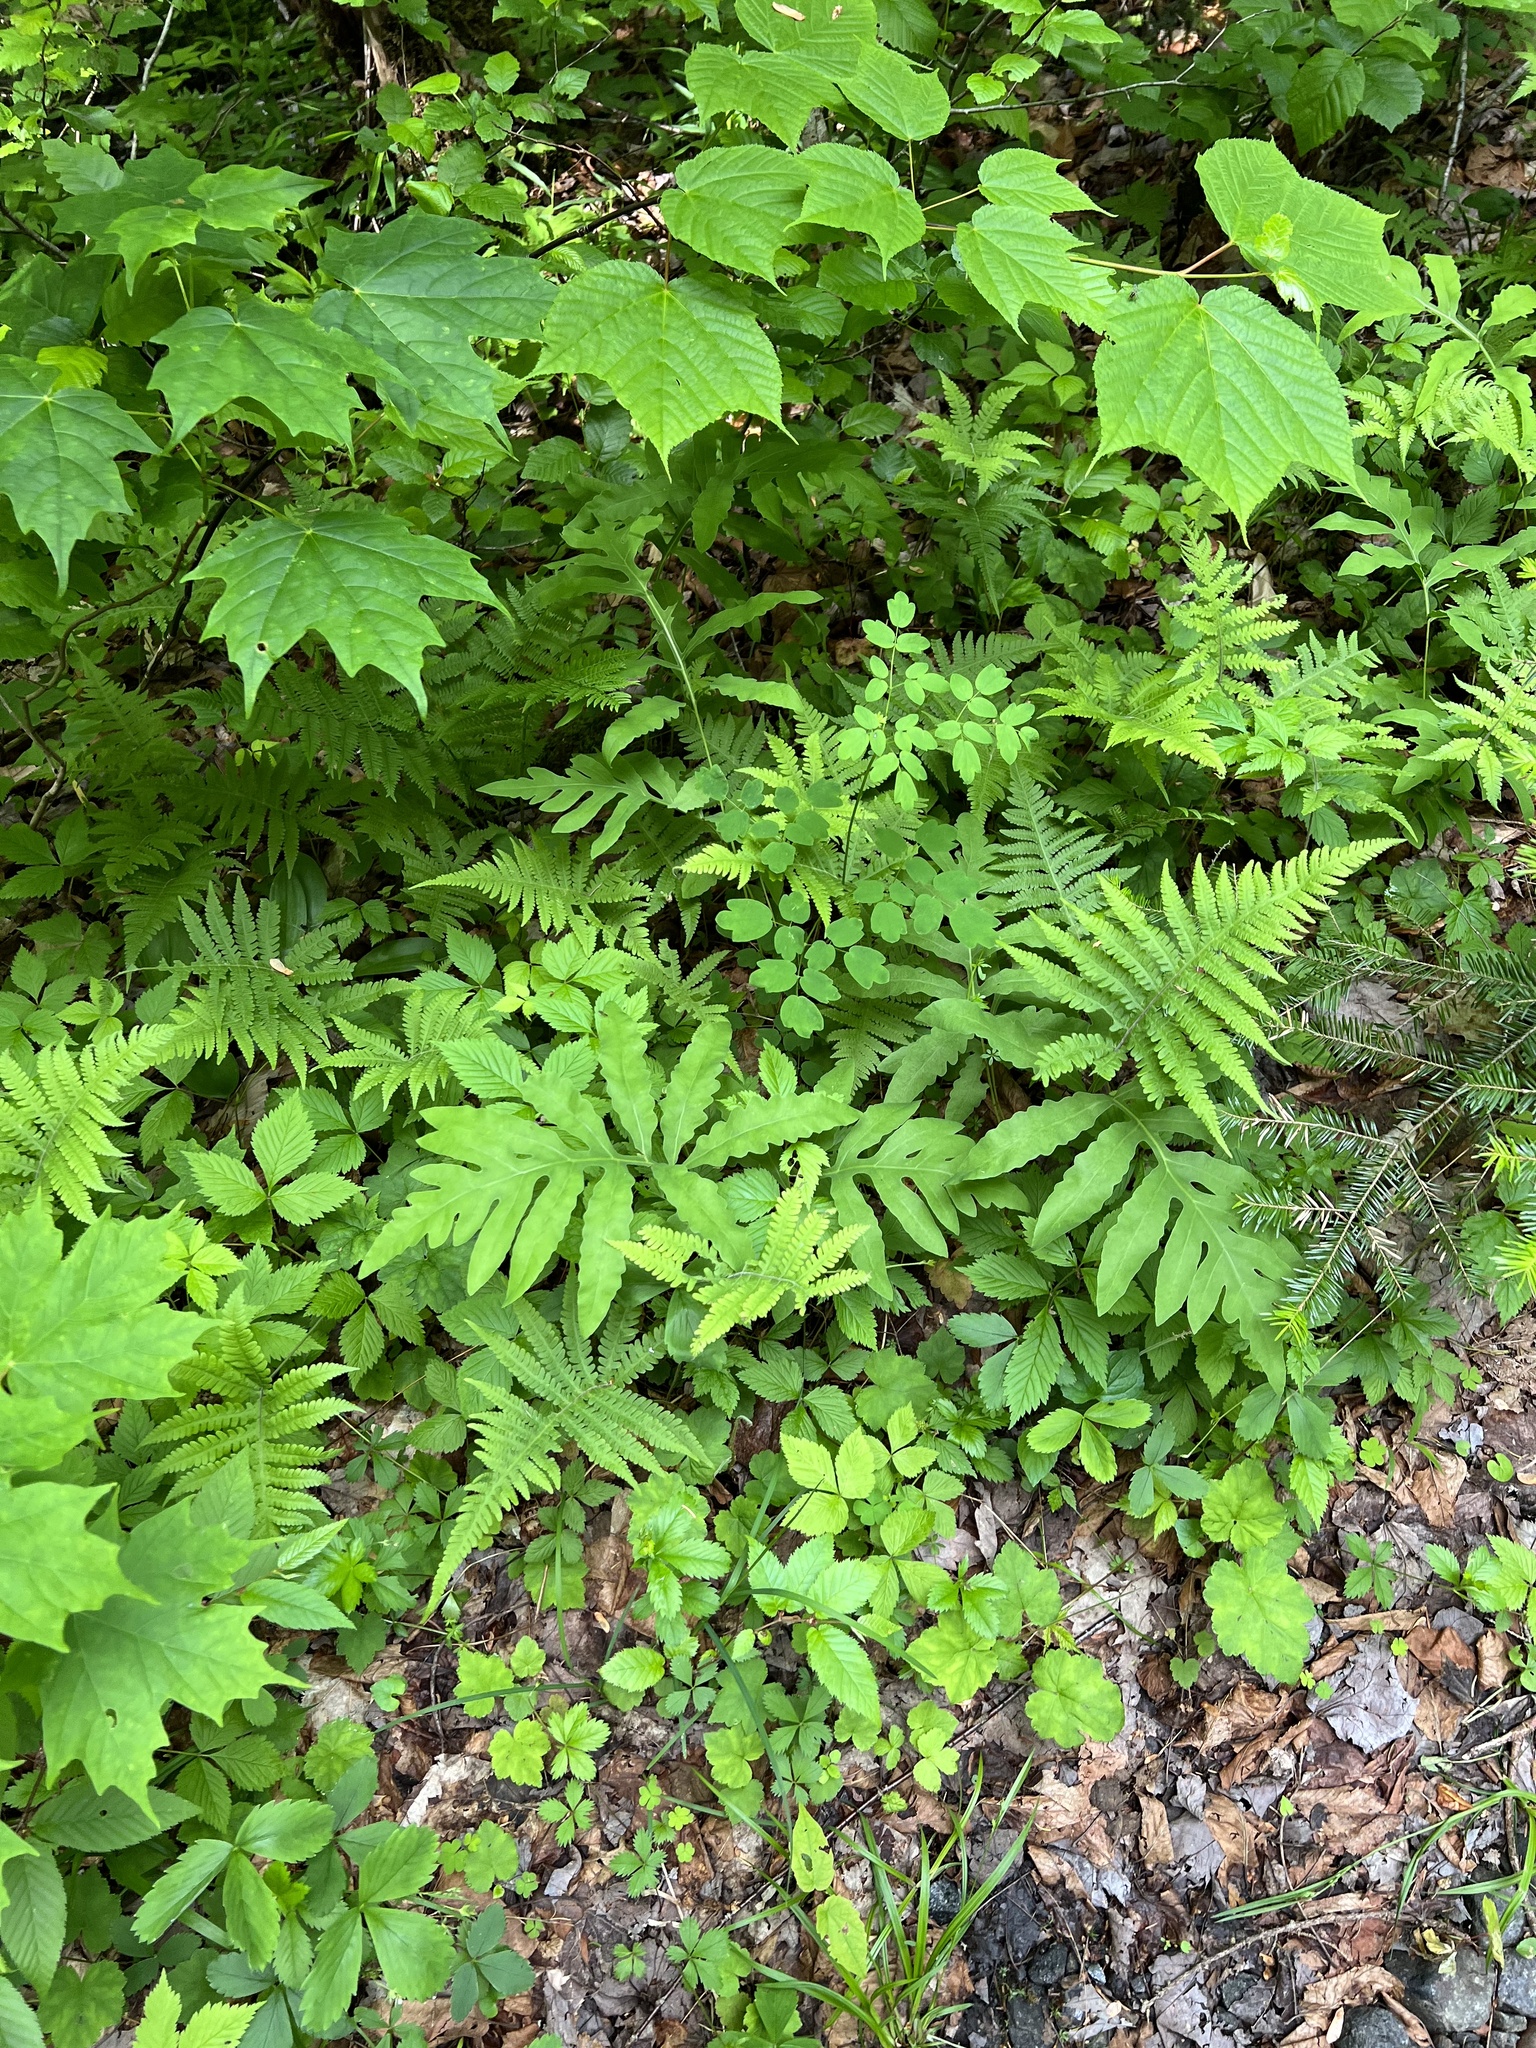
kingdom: Plantae
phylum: Tracheophyta
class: Polypodiopsida
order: Polypodiales
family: Onocleaceae
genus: Onoclea
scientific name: Onoclea sensibilis
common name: Sensitive fern
